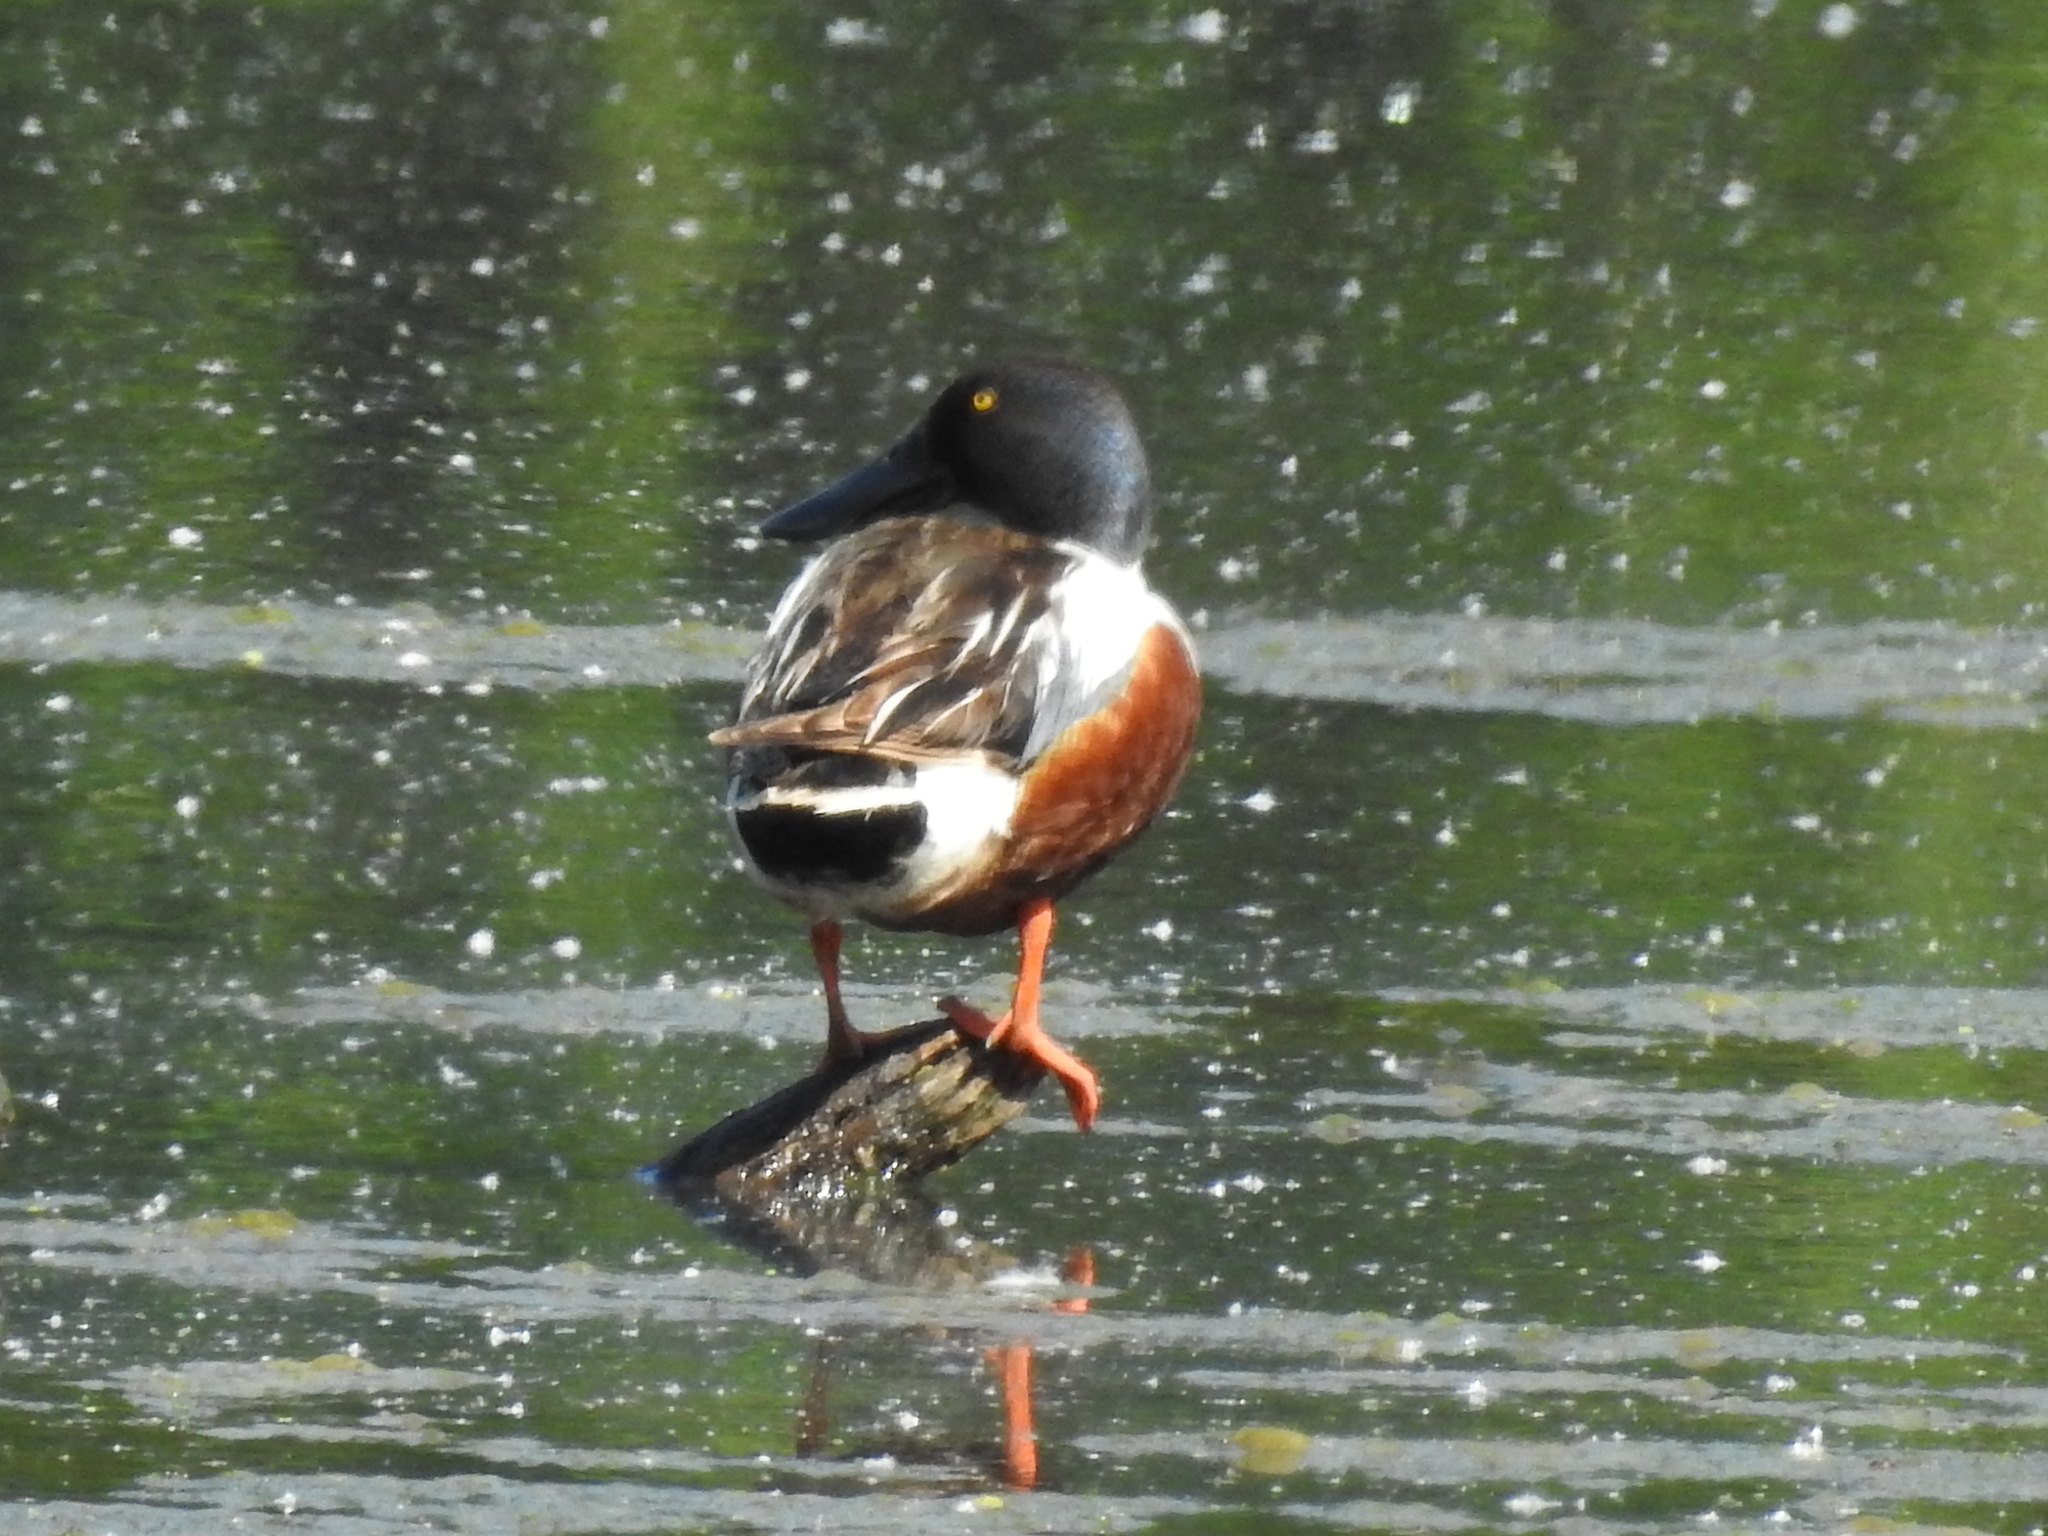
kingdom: Animalia
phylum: Chordata
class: Aves
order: Anseriformes
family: Anatidae
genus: Spatula
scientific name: Spatula clypeata
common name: Northern shoveler
